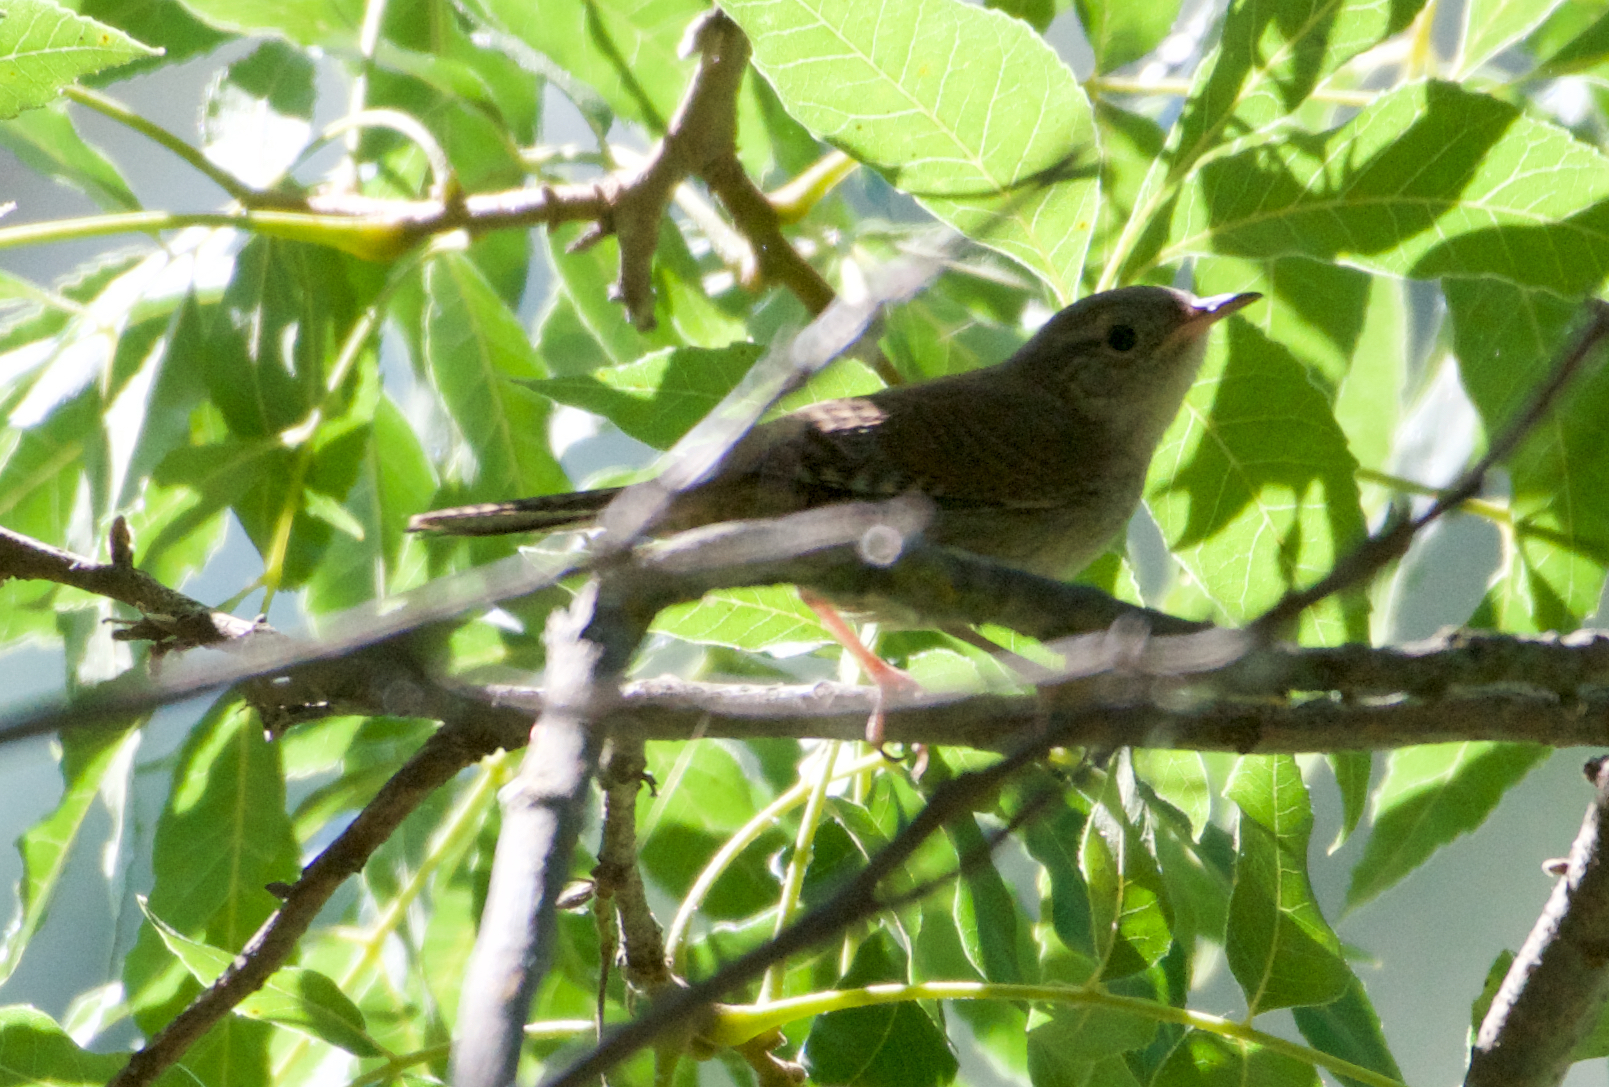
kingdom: Animalia
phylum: Chordata
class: Aves
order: Passeriformes
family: Troglodytidae
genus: Troglodytes
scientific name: Troglodytes aedon
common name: House wren
